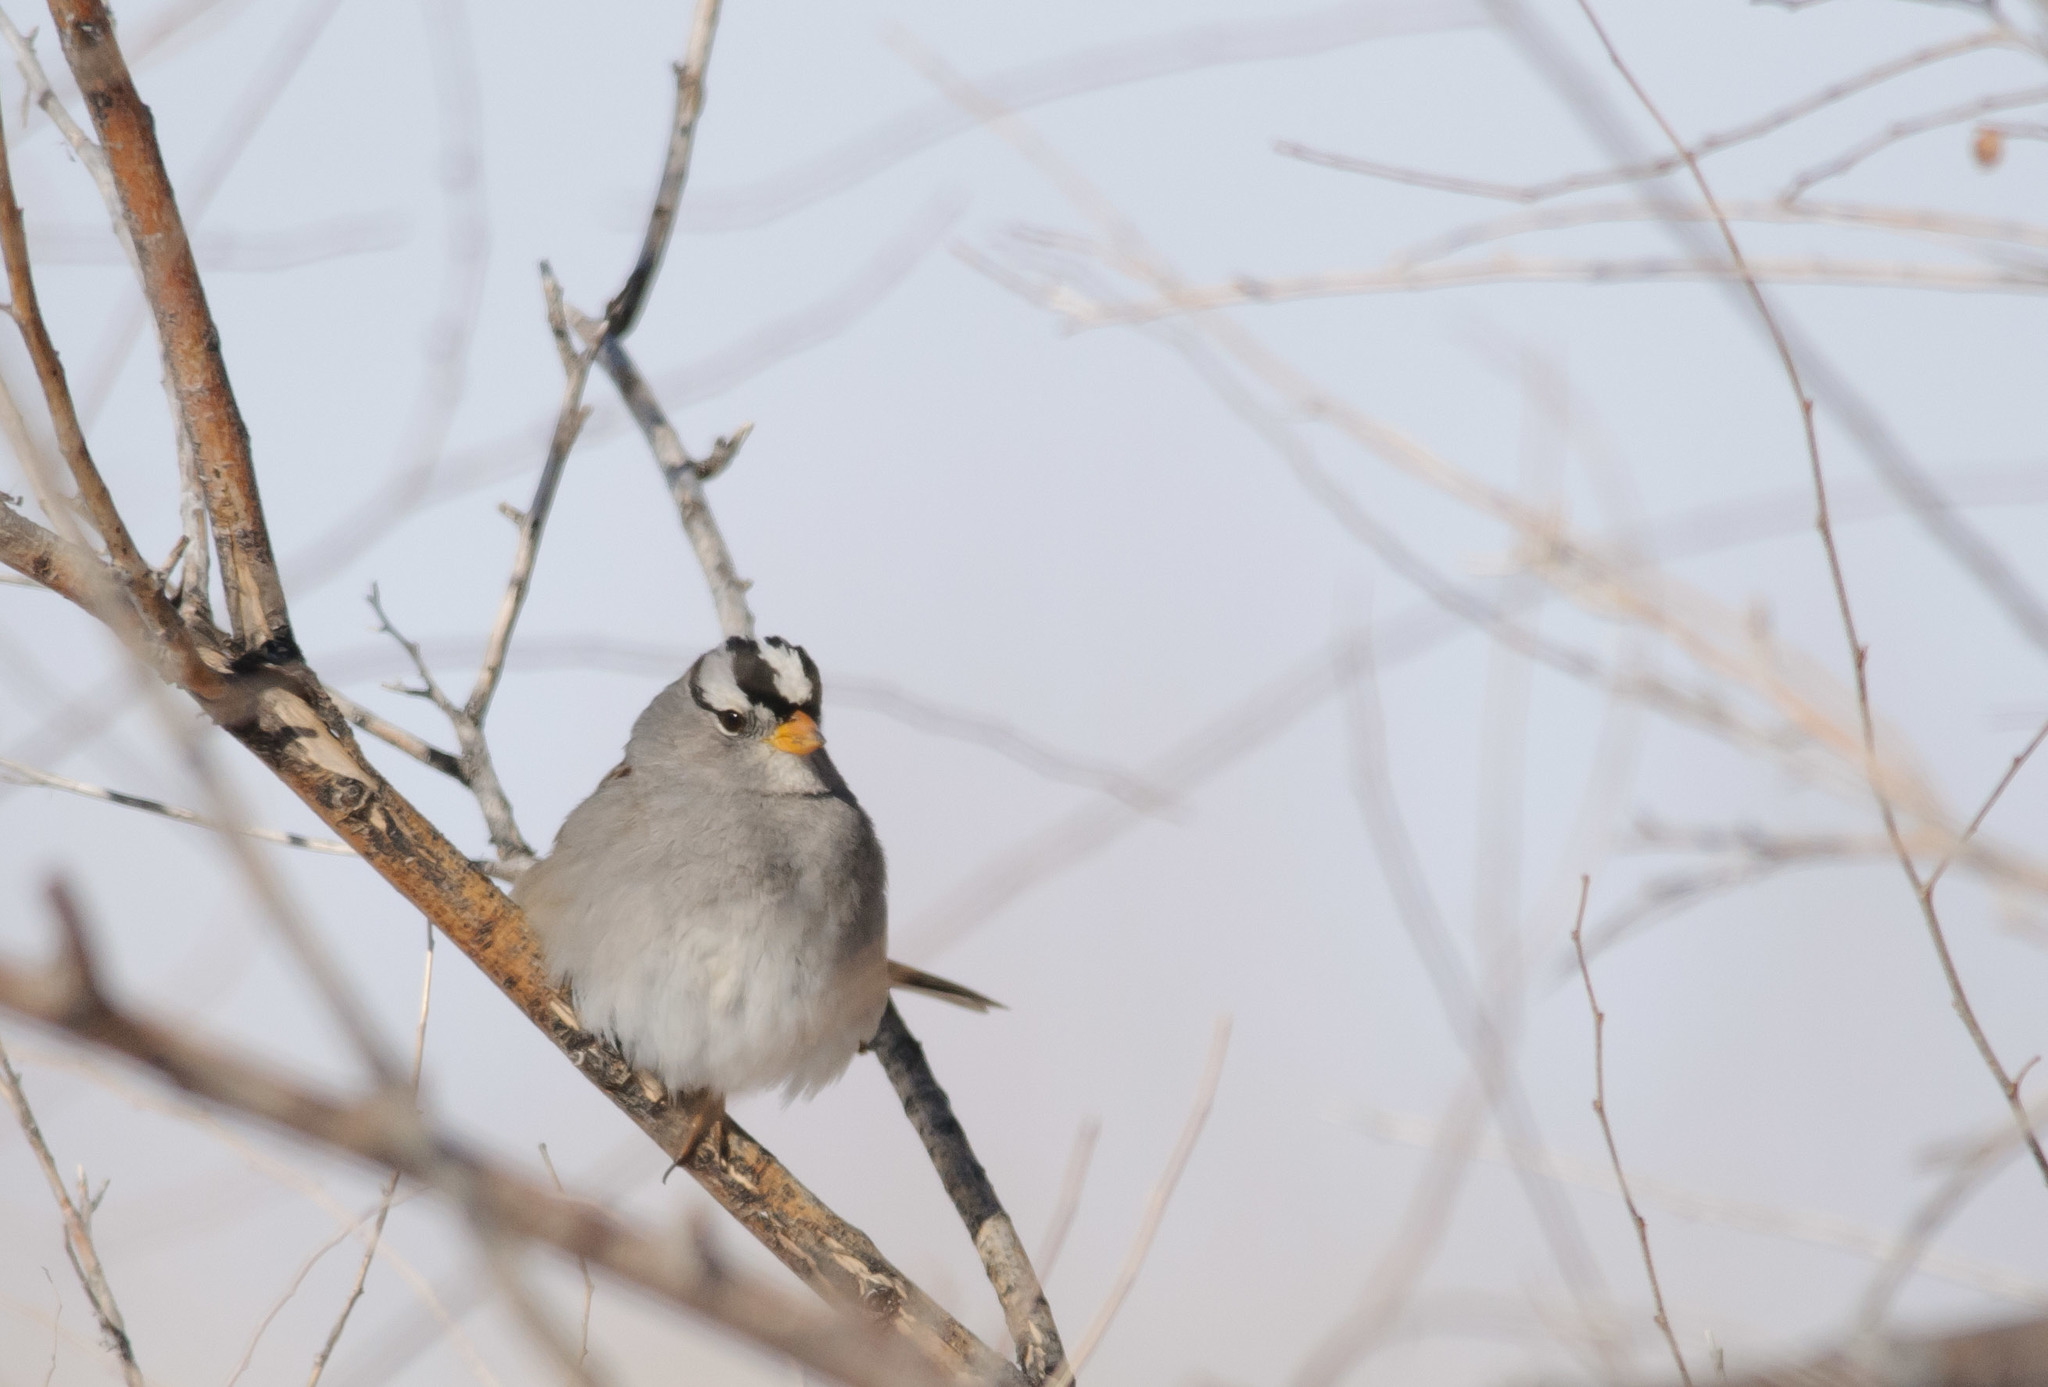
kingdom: Animalia
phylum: Chordata
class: Aves
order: Passeriformes
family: Passerellidae
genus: Zonotrichia
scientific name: Zonotrichia leucophrys
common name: White-crowned sparrow
